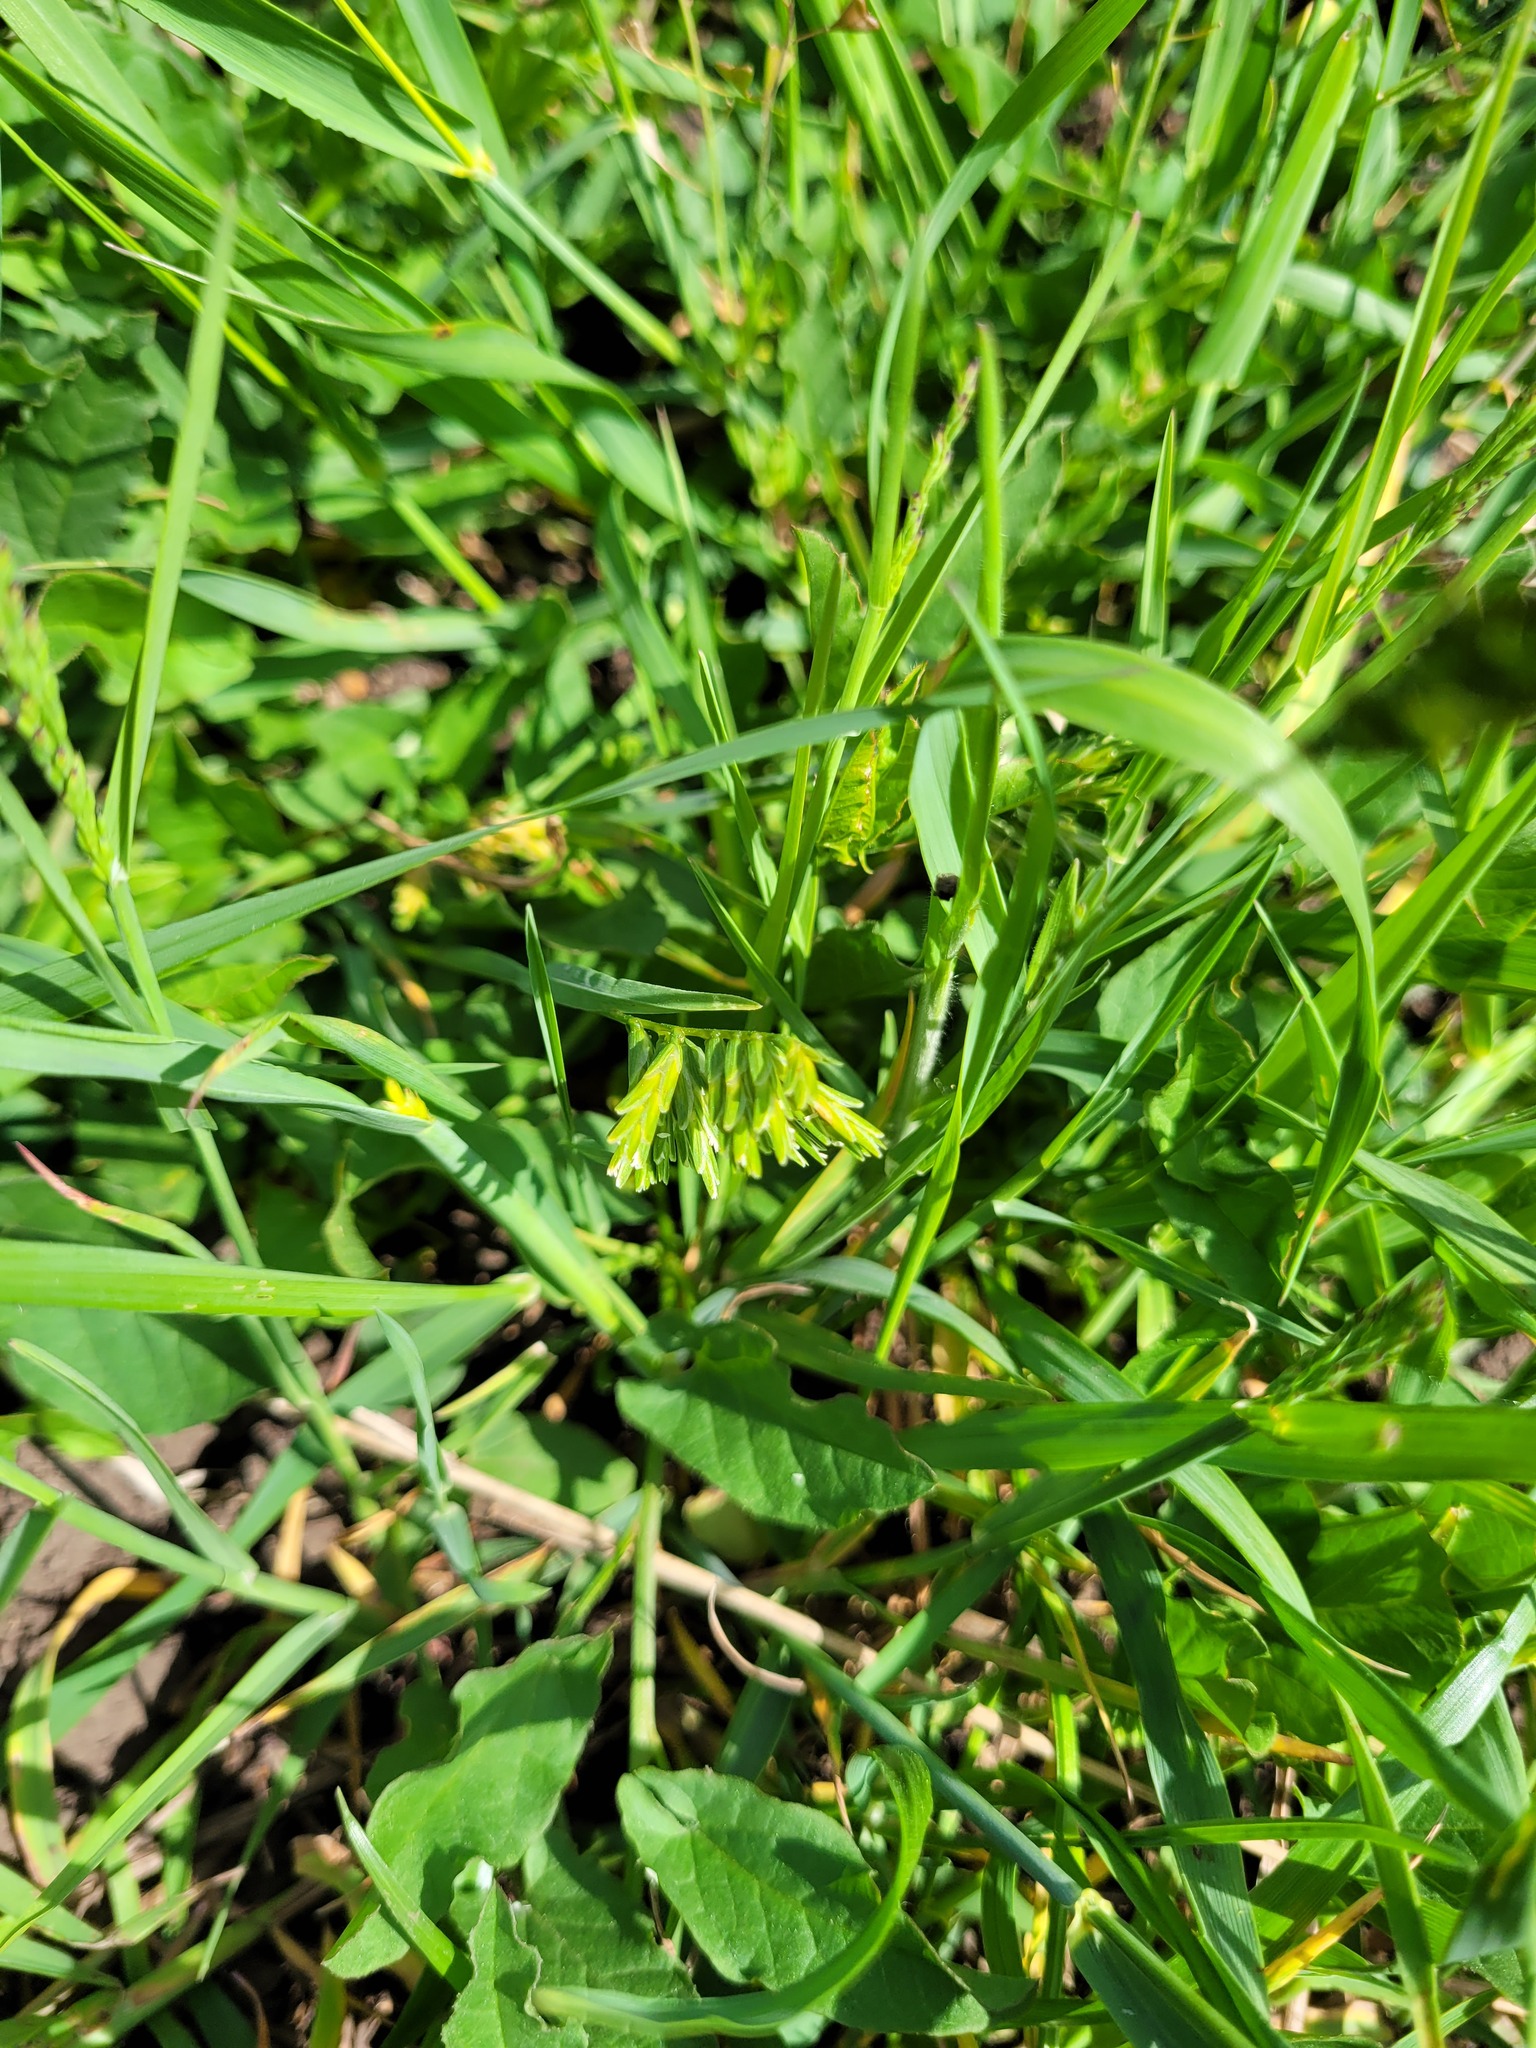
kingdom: Plantae
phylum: Tracheophyta
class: Liliopsida
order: Poales
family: Poaceae
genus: Sclerochloa
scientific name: Sclerochloa dura
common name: Common hardgrass
